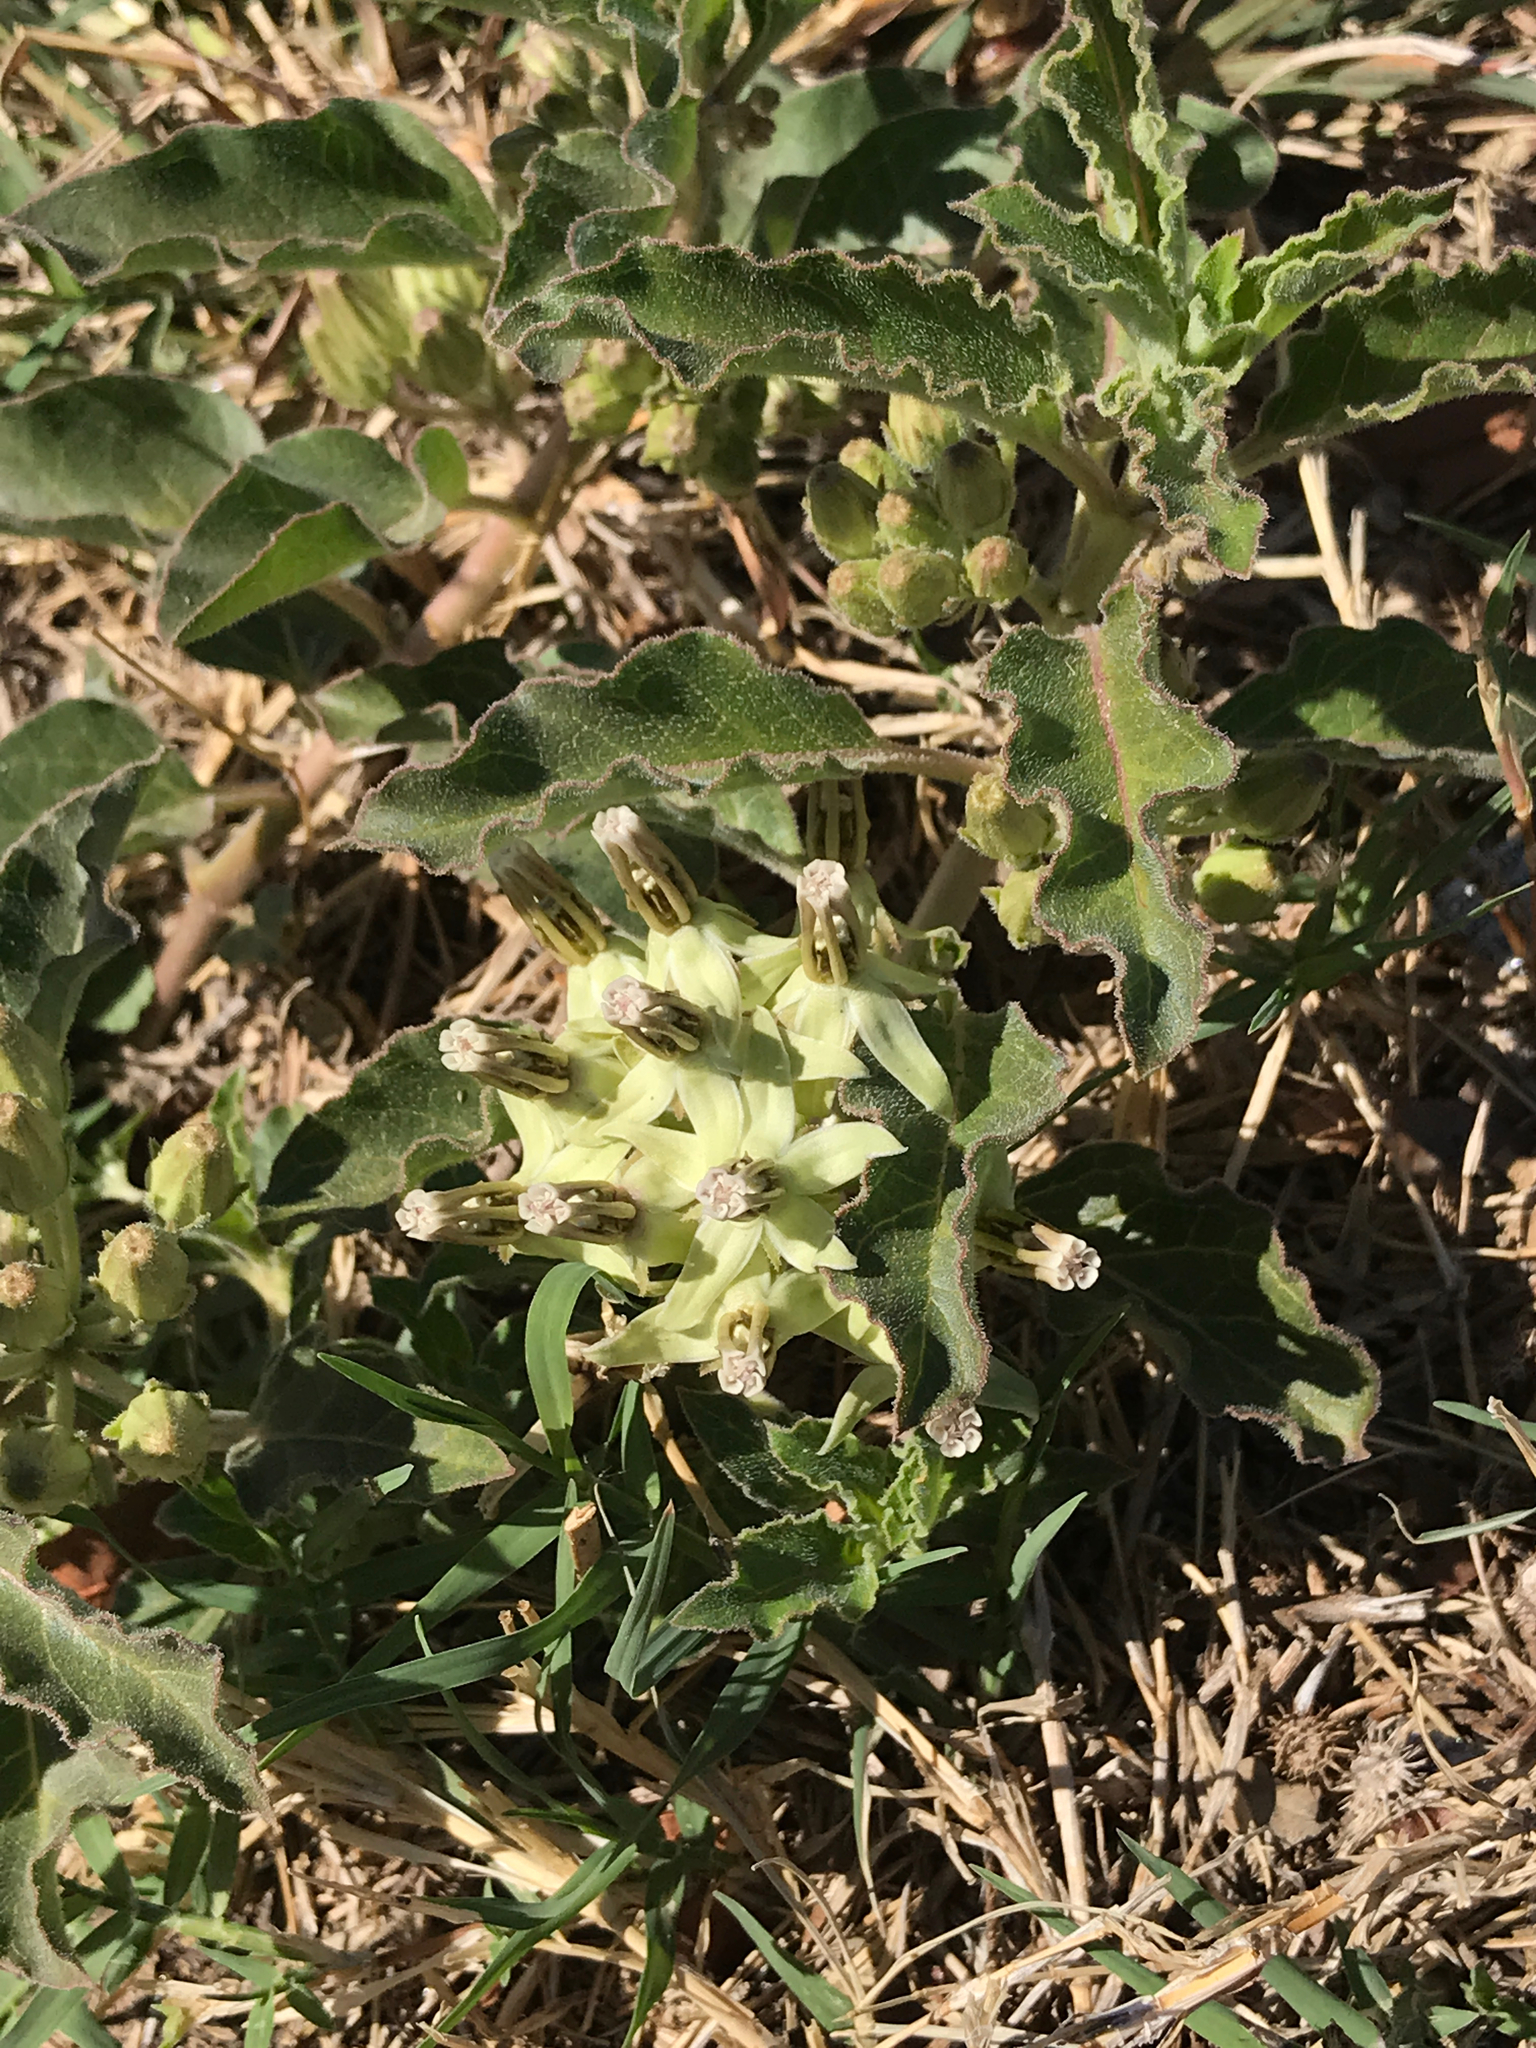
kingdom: Plantae
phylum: Tracheophyta
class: Magnoliopsida
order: Gentianales
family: Apocynaceae
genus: Asclepias
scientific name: Asclepias oenotheroides
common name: Zizotes milkweed
